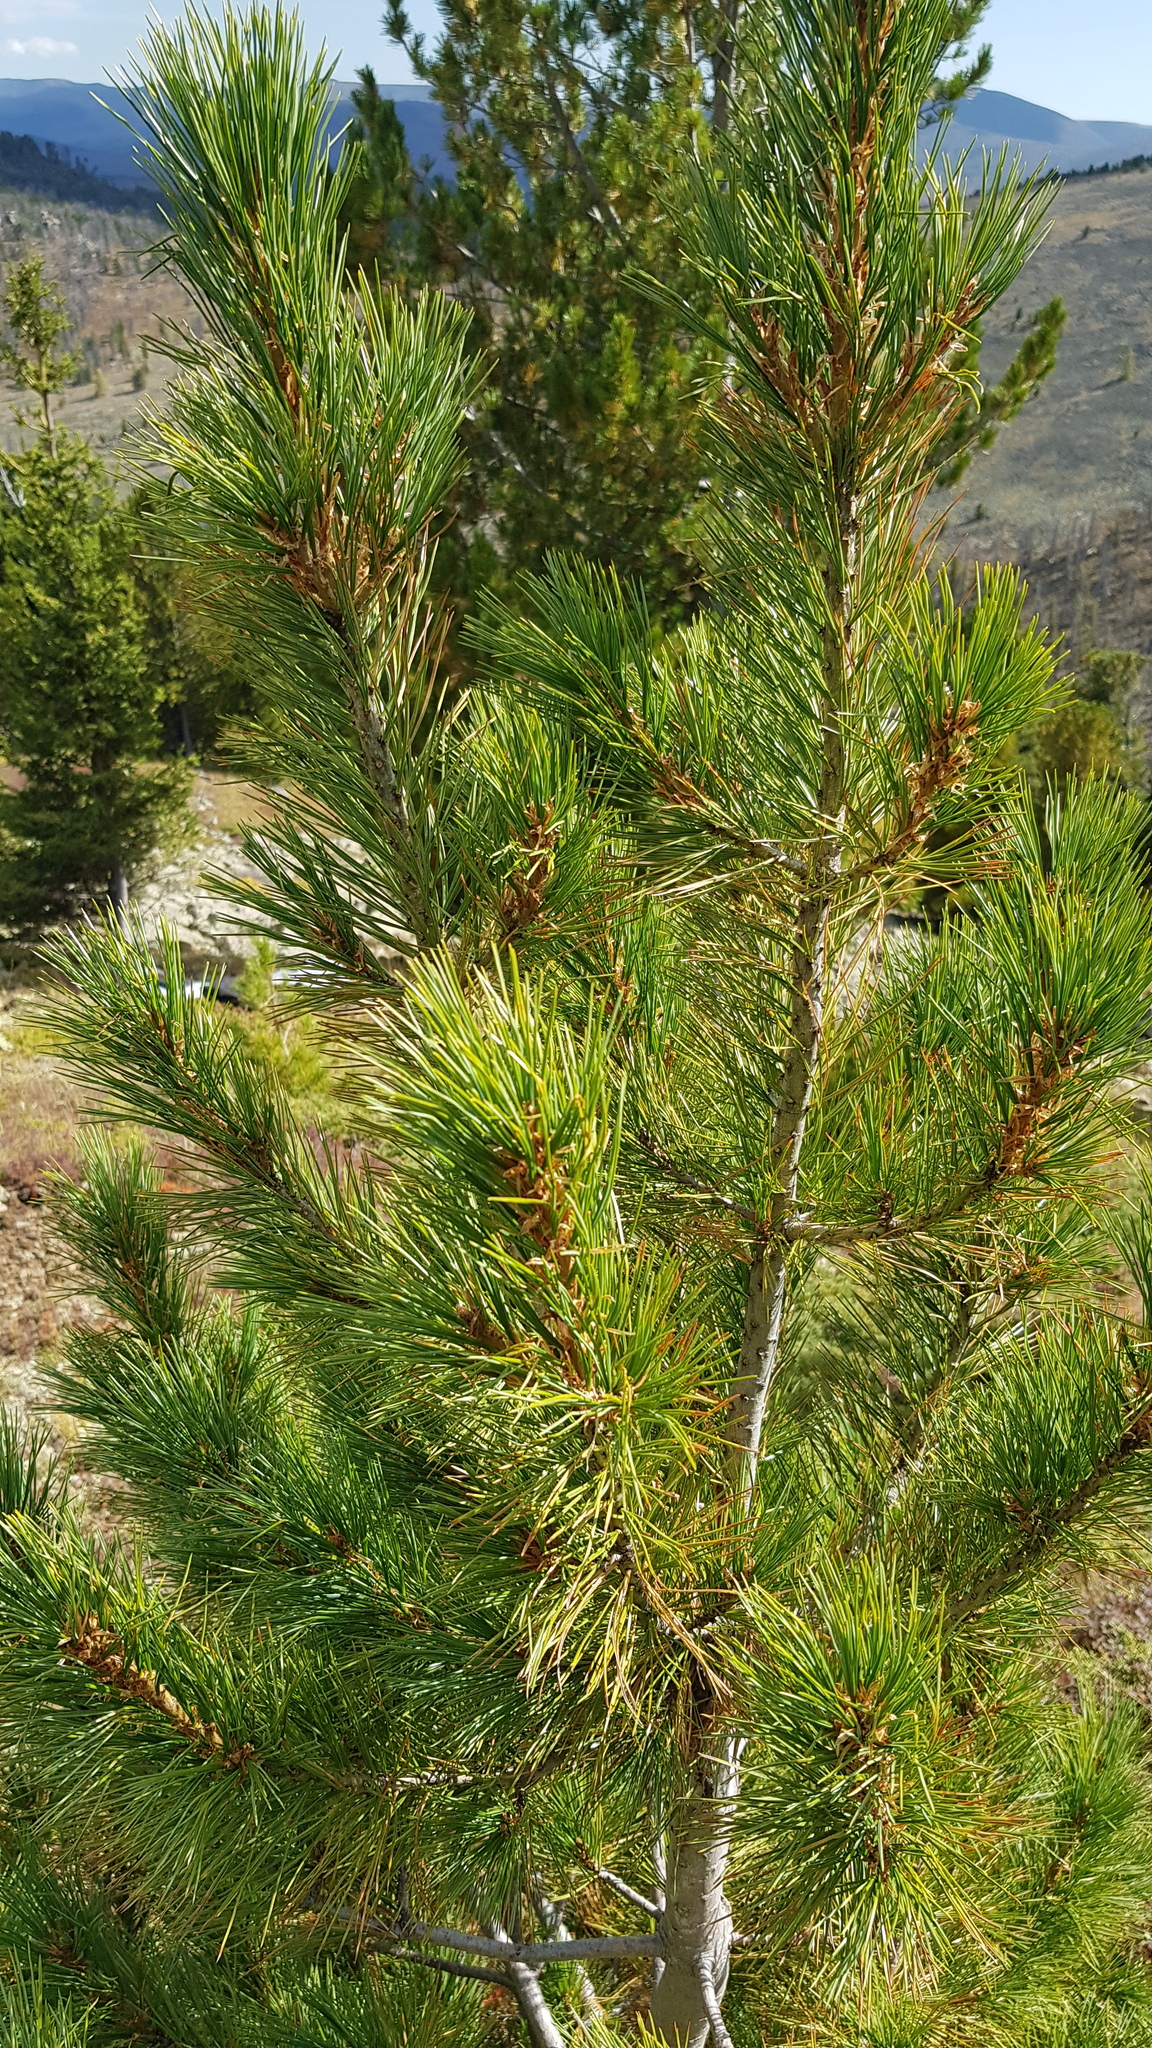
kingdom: Plantae
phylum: Tracheophyta
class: Pinopsida
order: Pinales
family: Pinaceae
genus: Pinus
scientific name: Pinus sibirica
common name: Siberian pine
